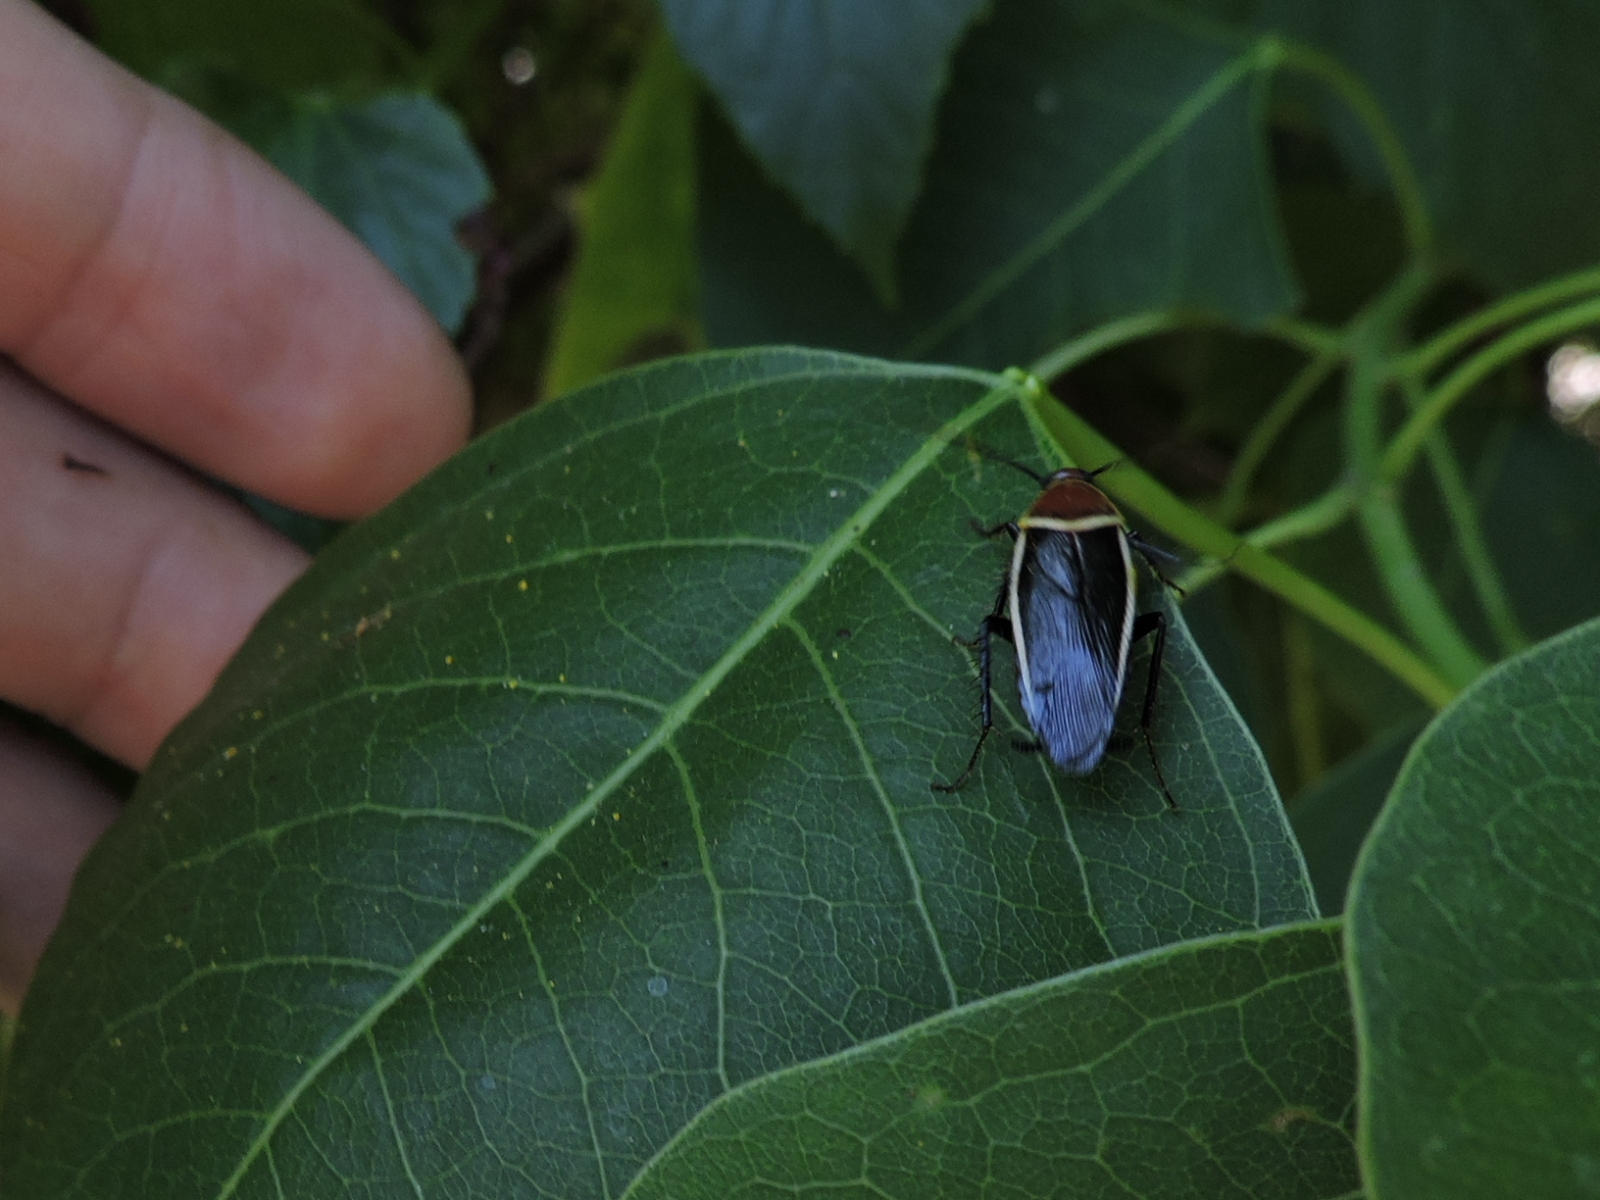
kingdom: Animalia
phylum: Arthropoda
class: Insecta
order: Blattodea
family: Ectobiidae
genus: Pseudomops
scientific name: Pseudomops septentrionalis
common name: Pale-bordered field cockroach
